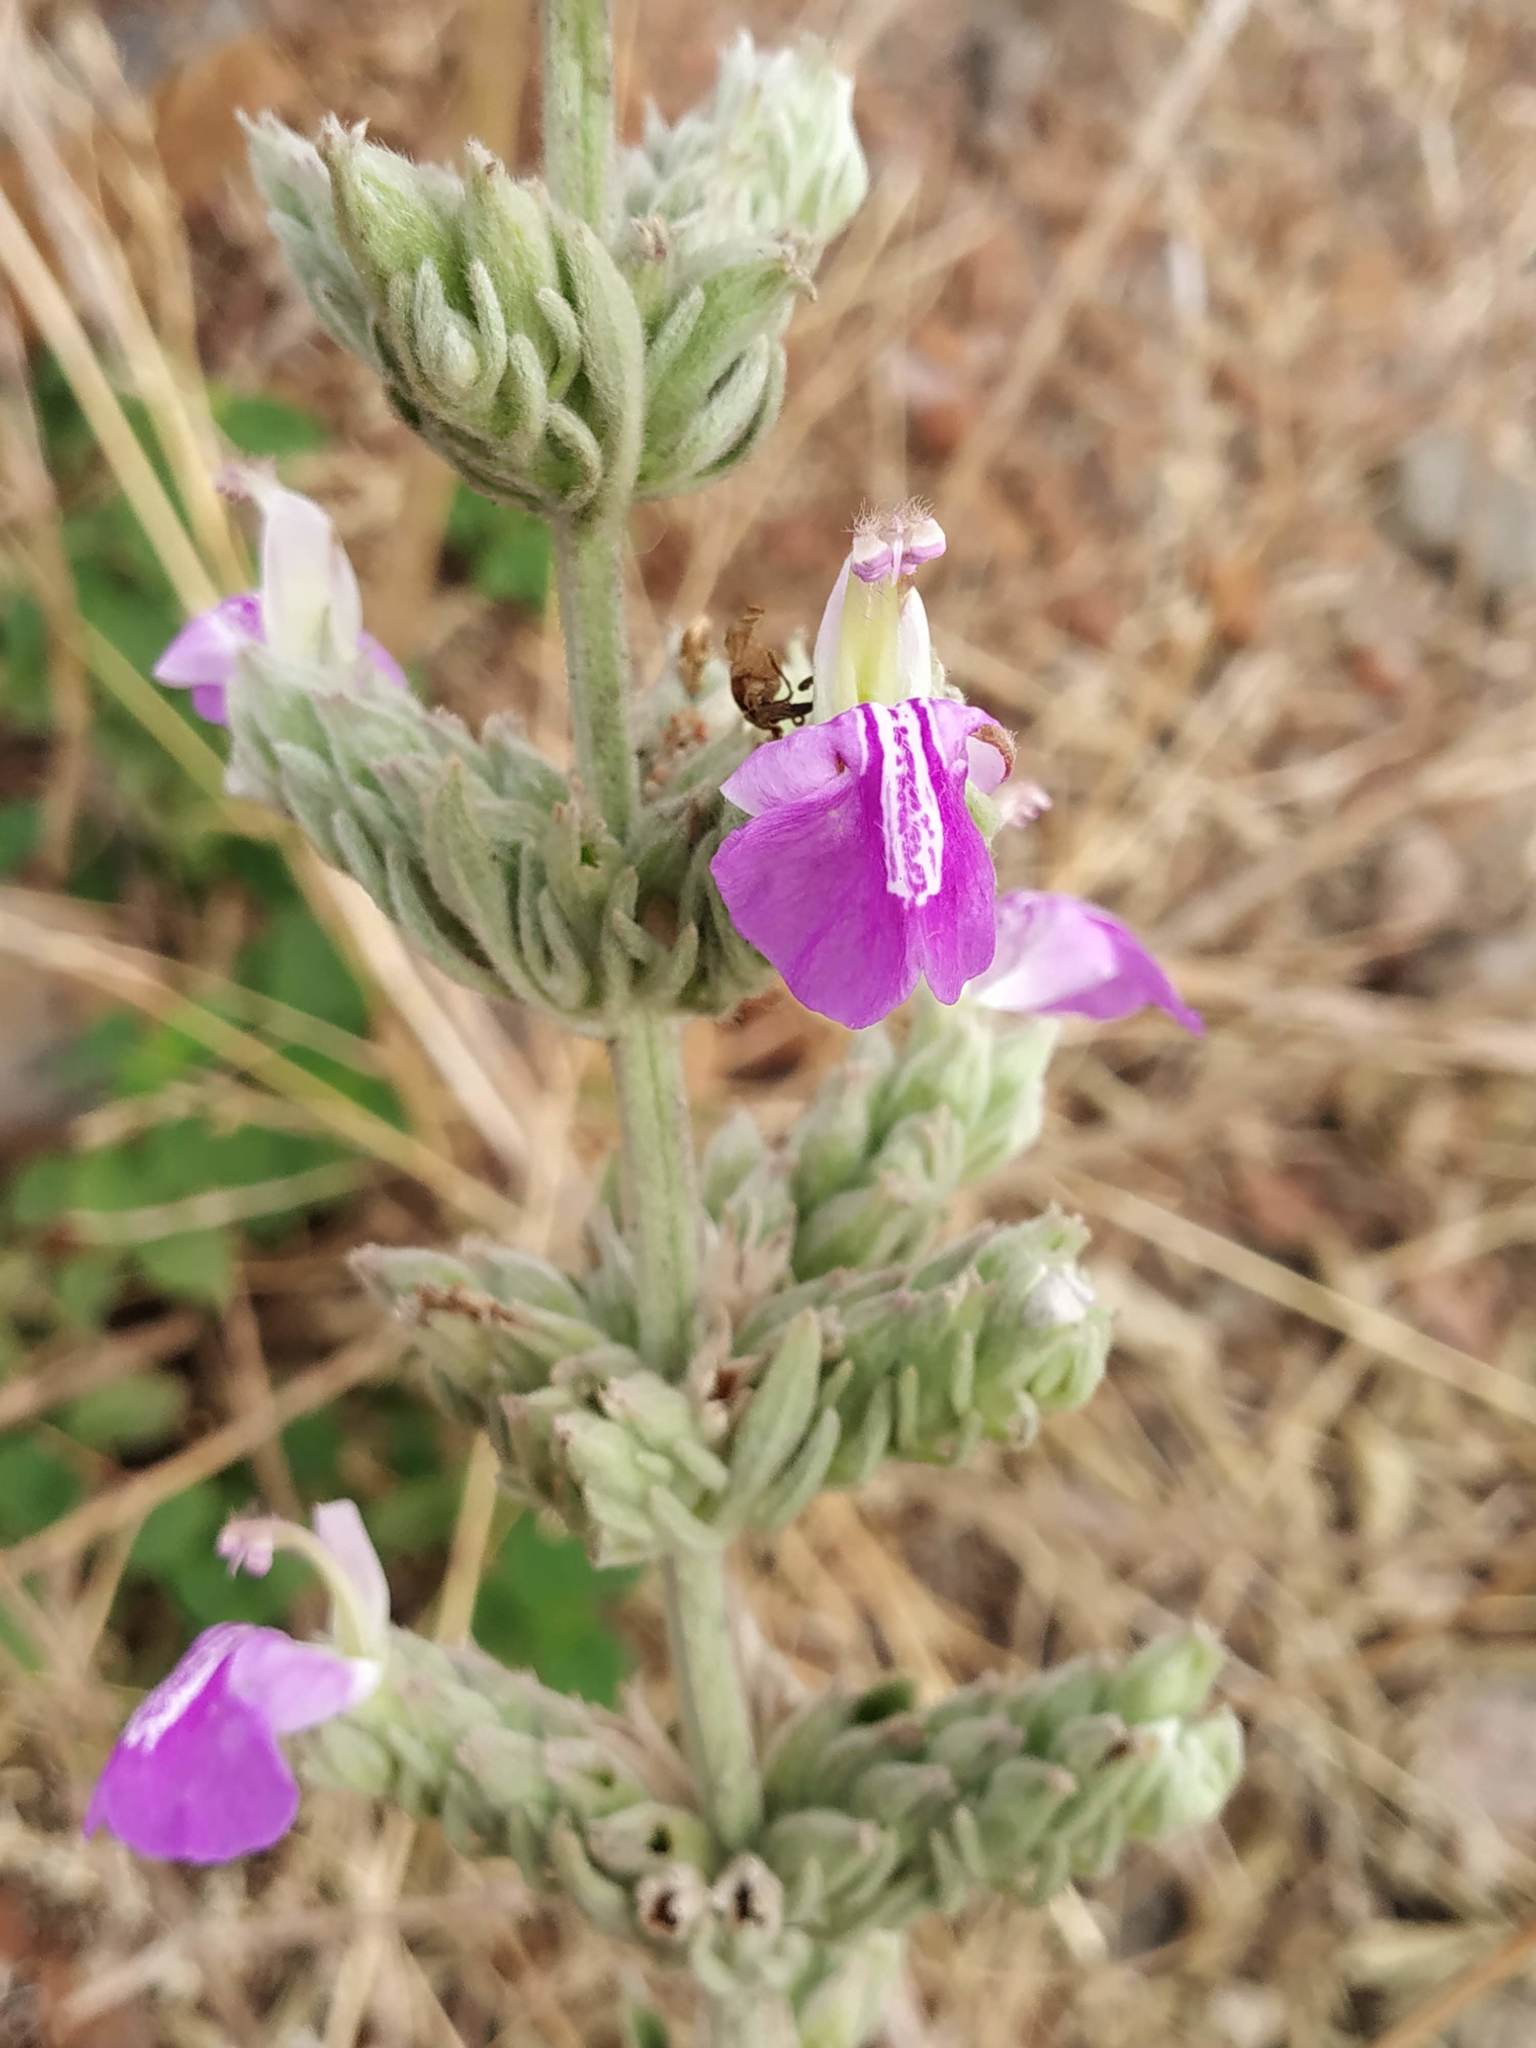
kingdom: Plantae
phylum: Tracheophyta
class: Magnoliopsida
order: Lamiales
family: Lamiaceae
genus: Anisomeles
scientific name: Anisomeles malabarica
